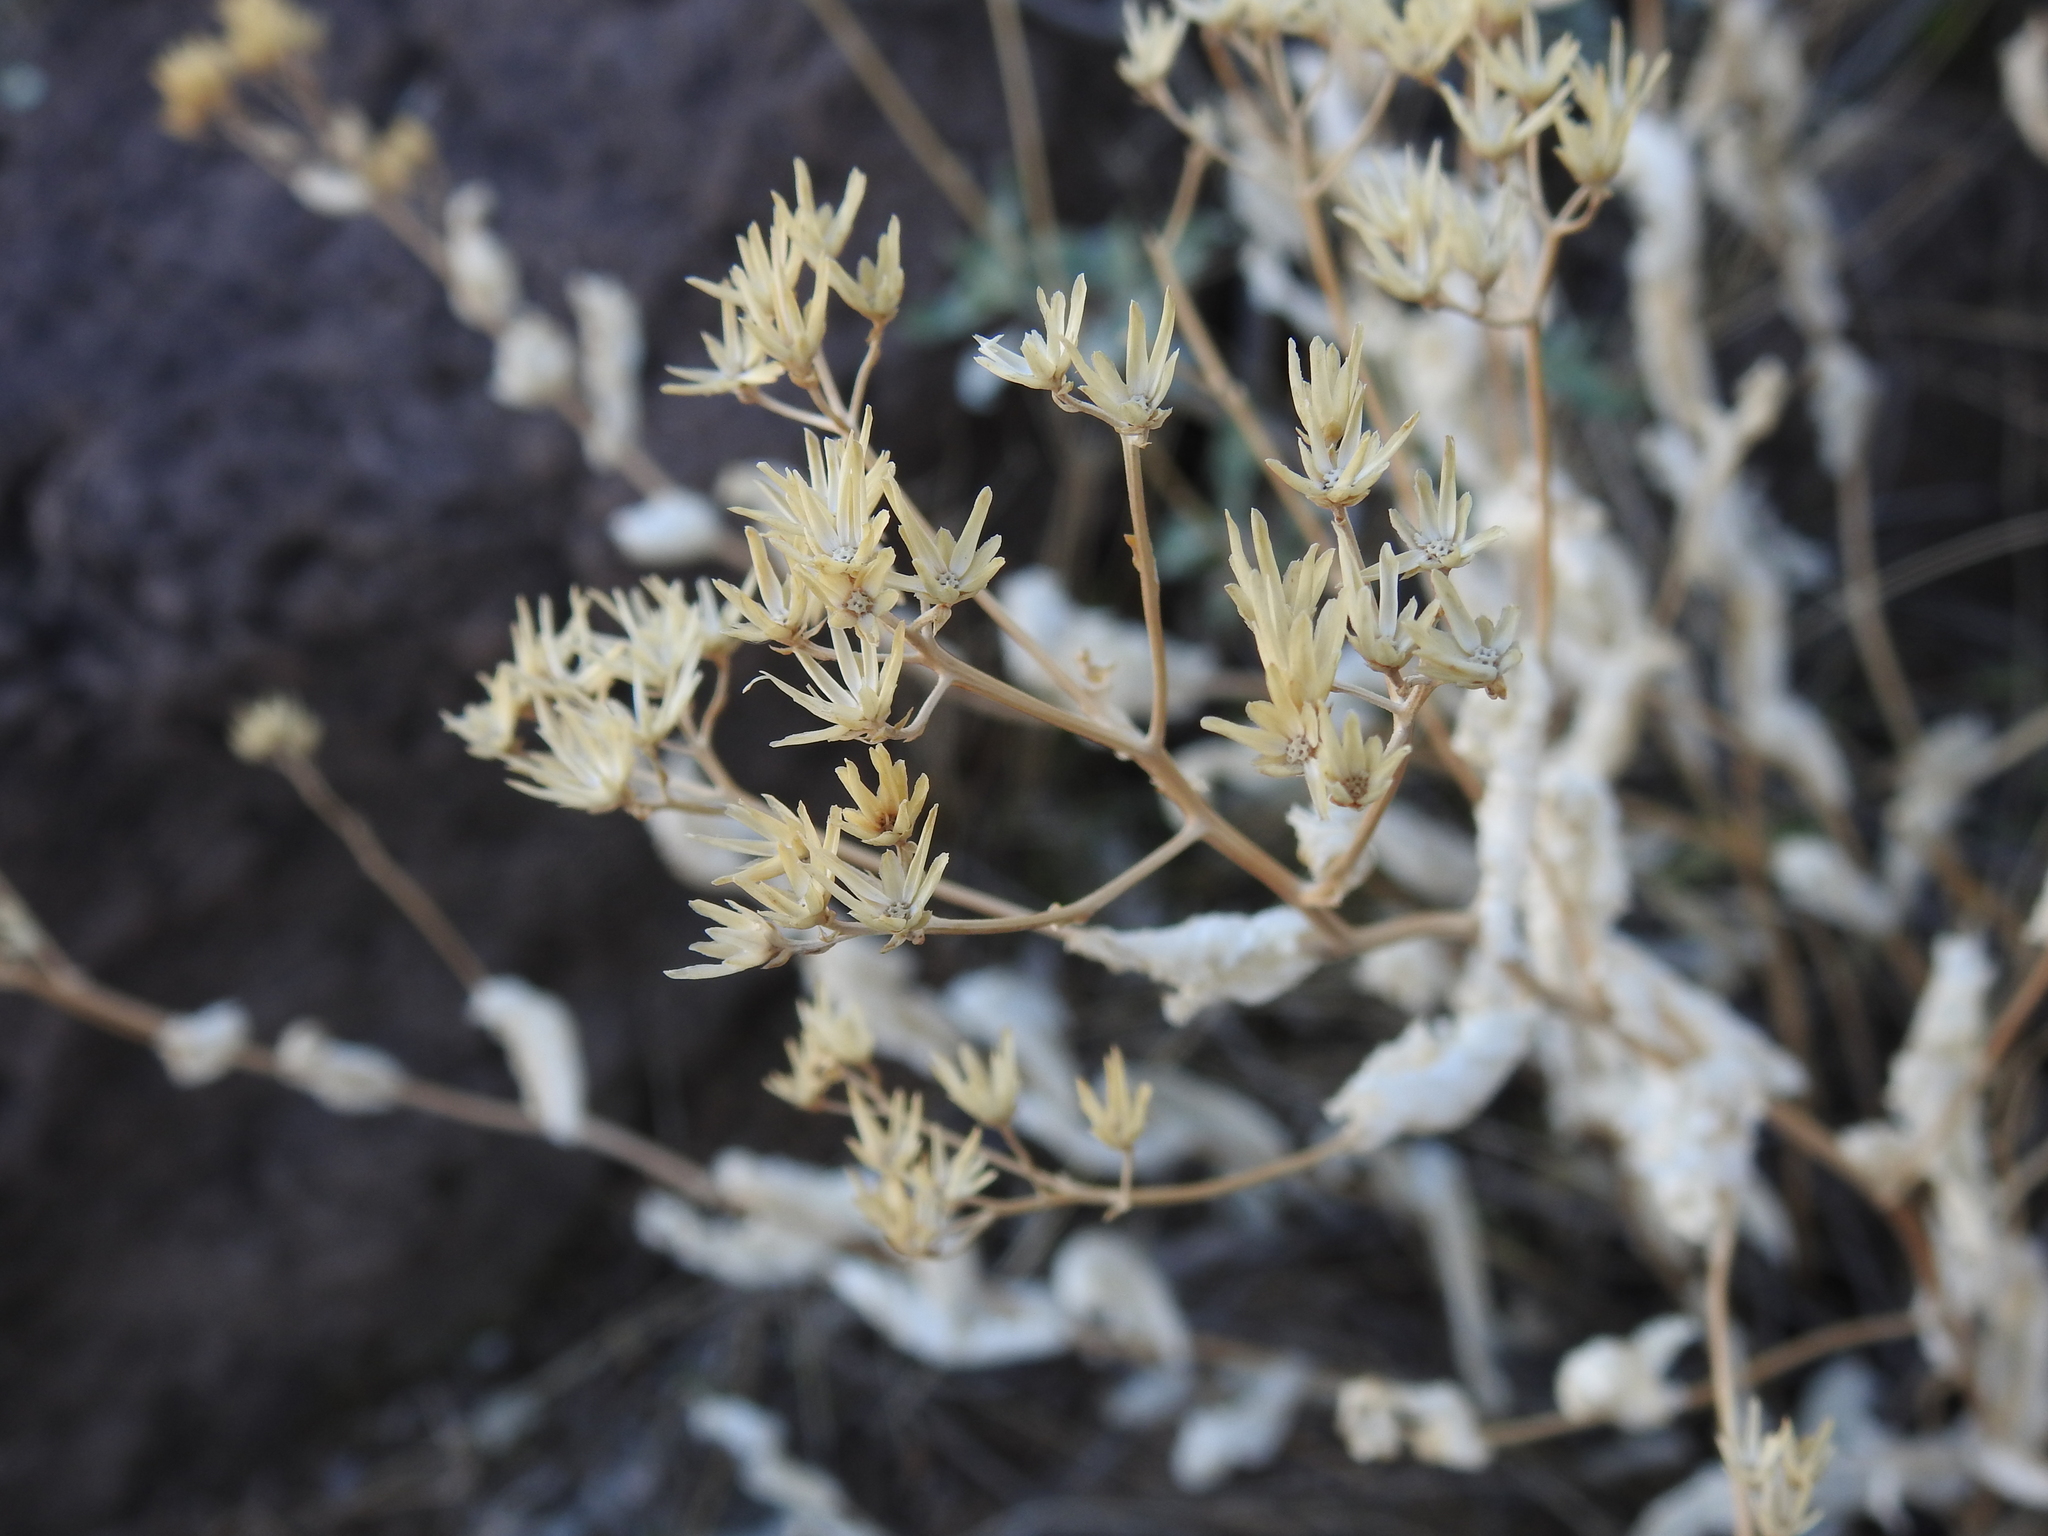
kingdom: Plantae
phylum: Tracheophyta
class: Magnoliopsida
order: Asterales
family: Asteraceae
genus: Acourtia
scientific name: Acourtia wrightii
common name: Brownfoot
